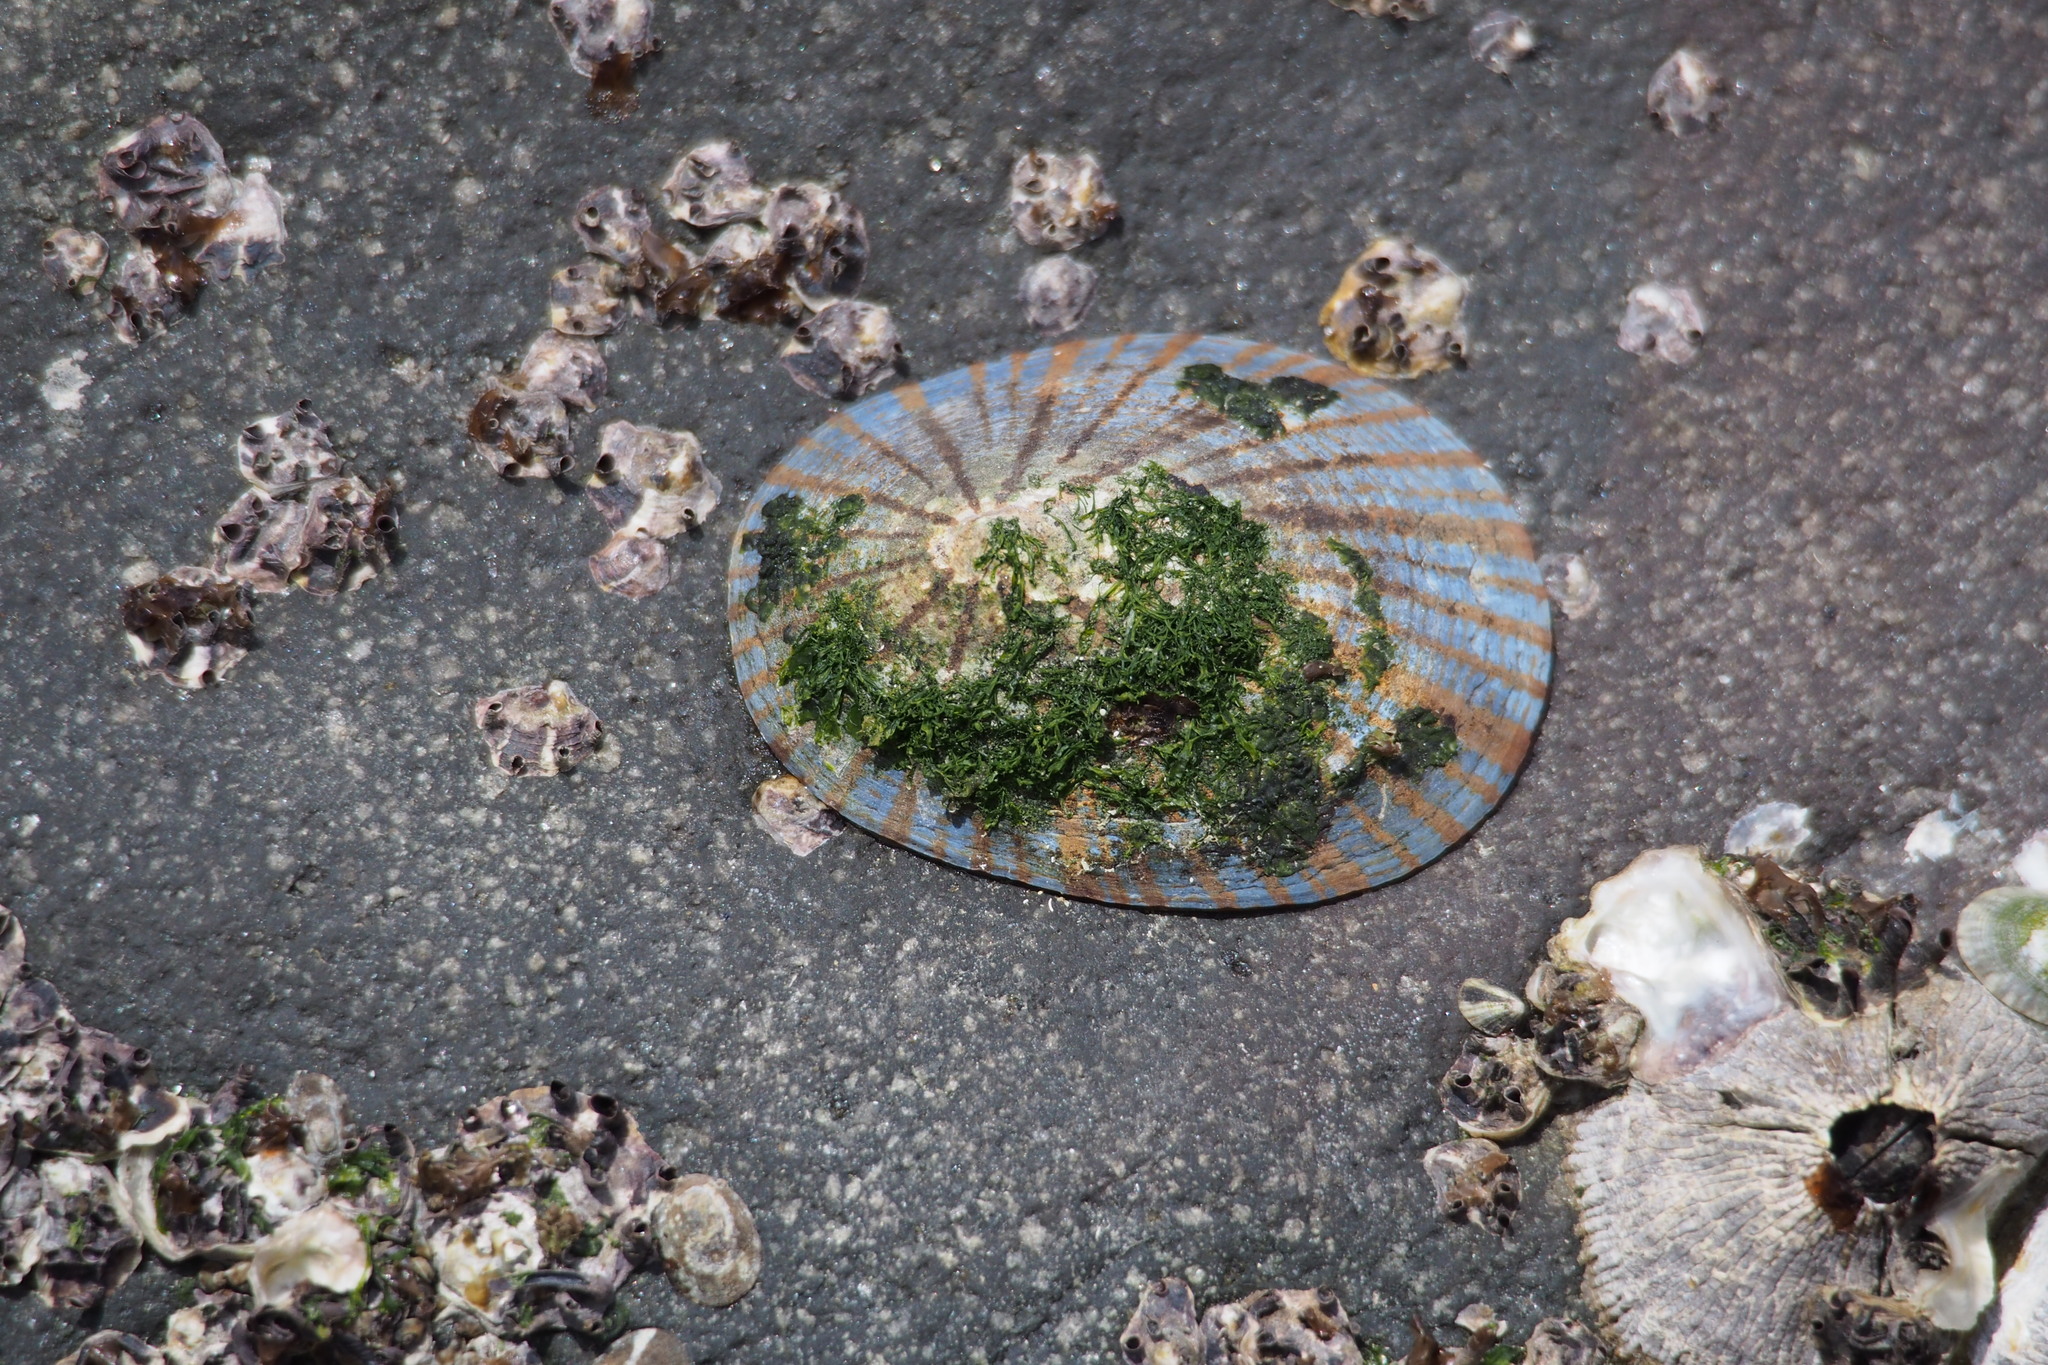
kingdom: Animalia
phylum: Mollusca
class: Gastropoda
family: Nacellidae
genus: Cellana
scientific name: Cellana nigrolineata
